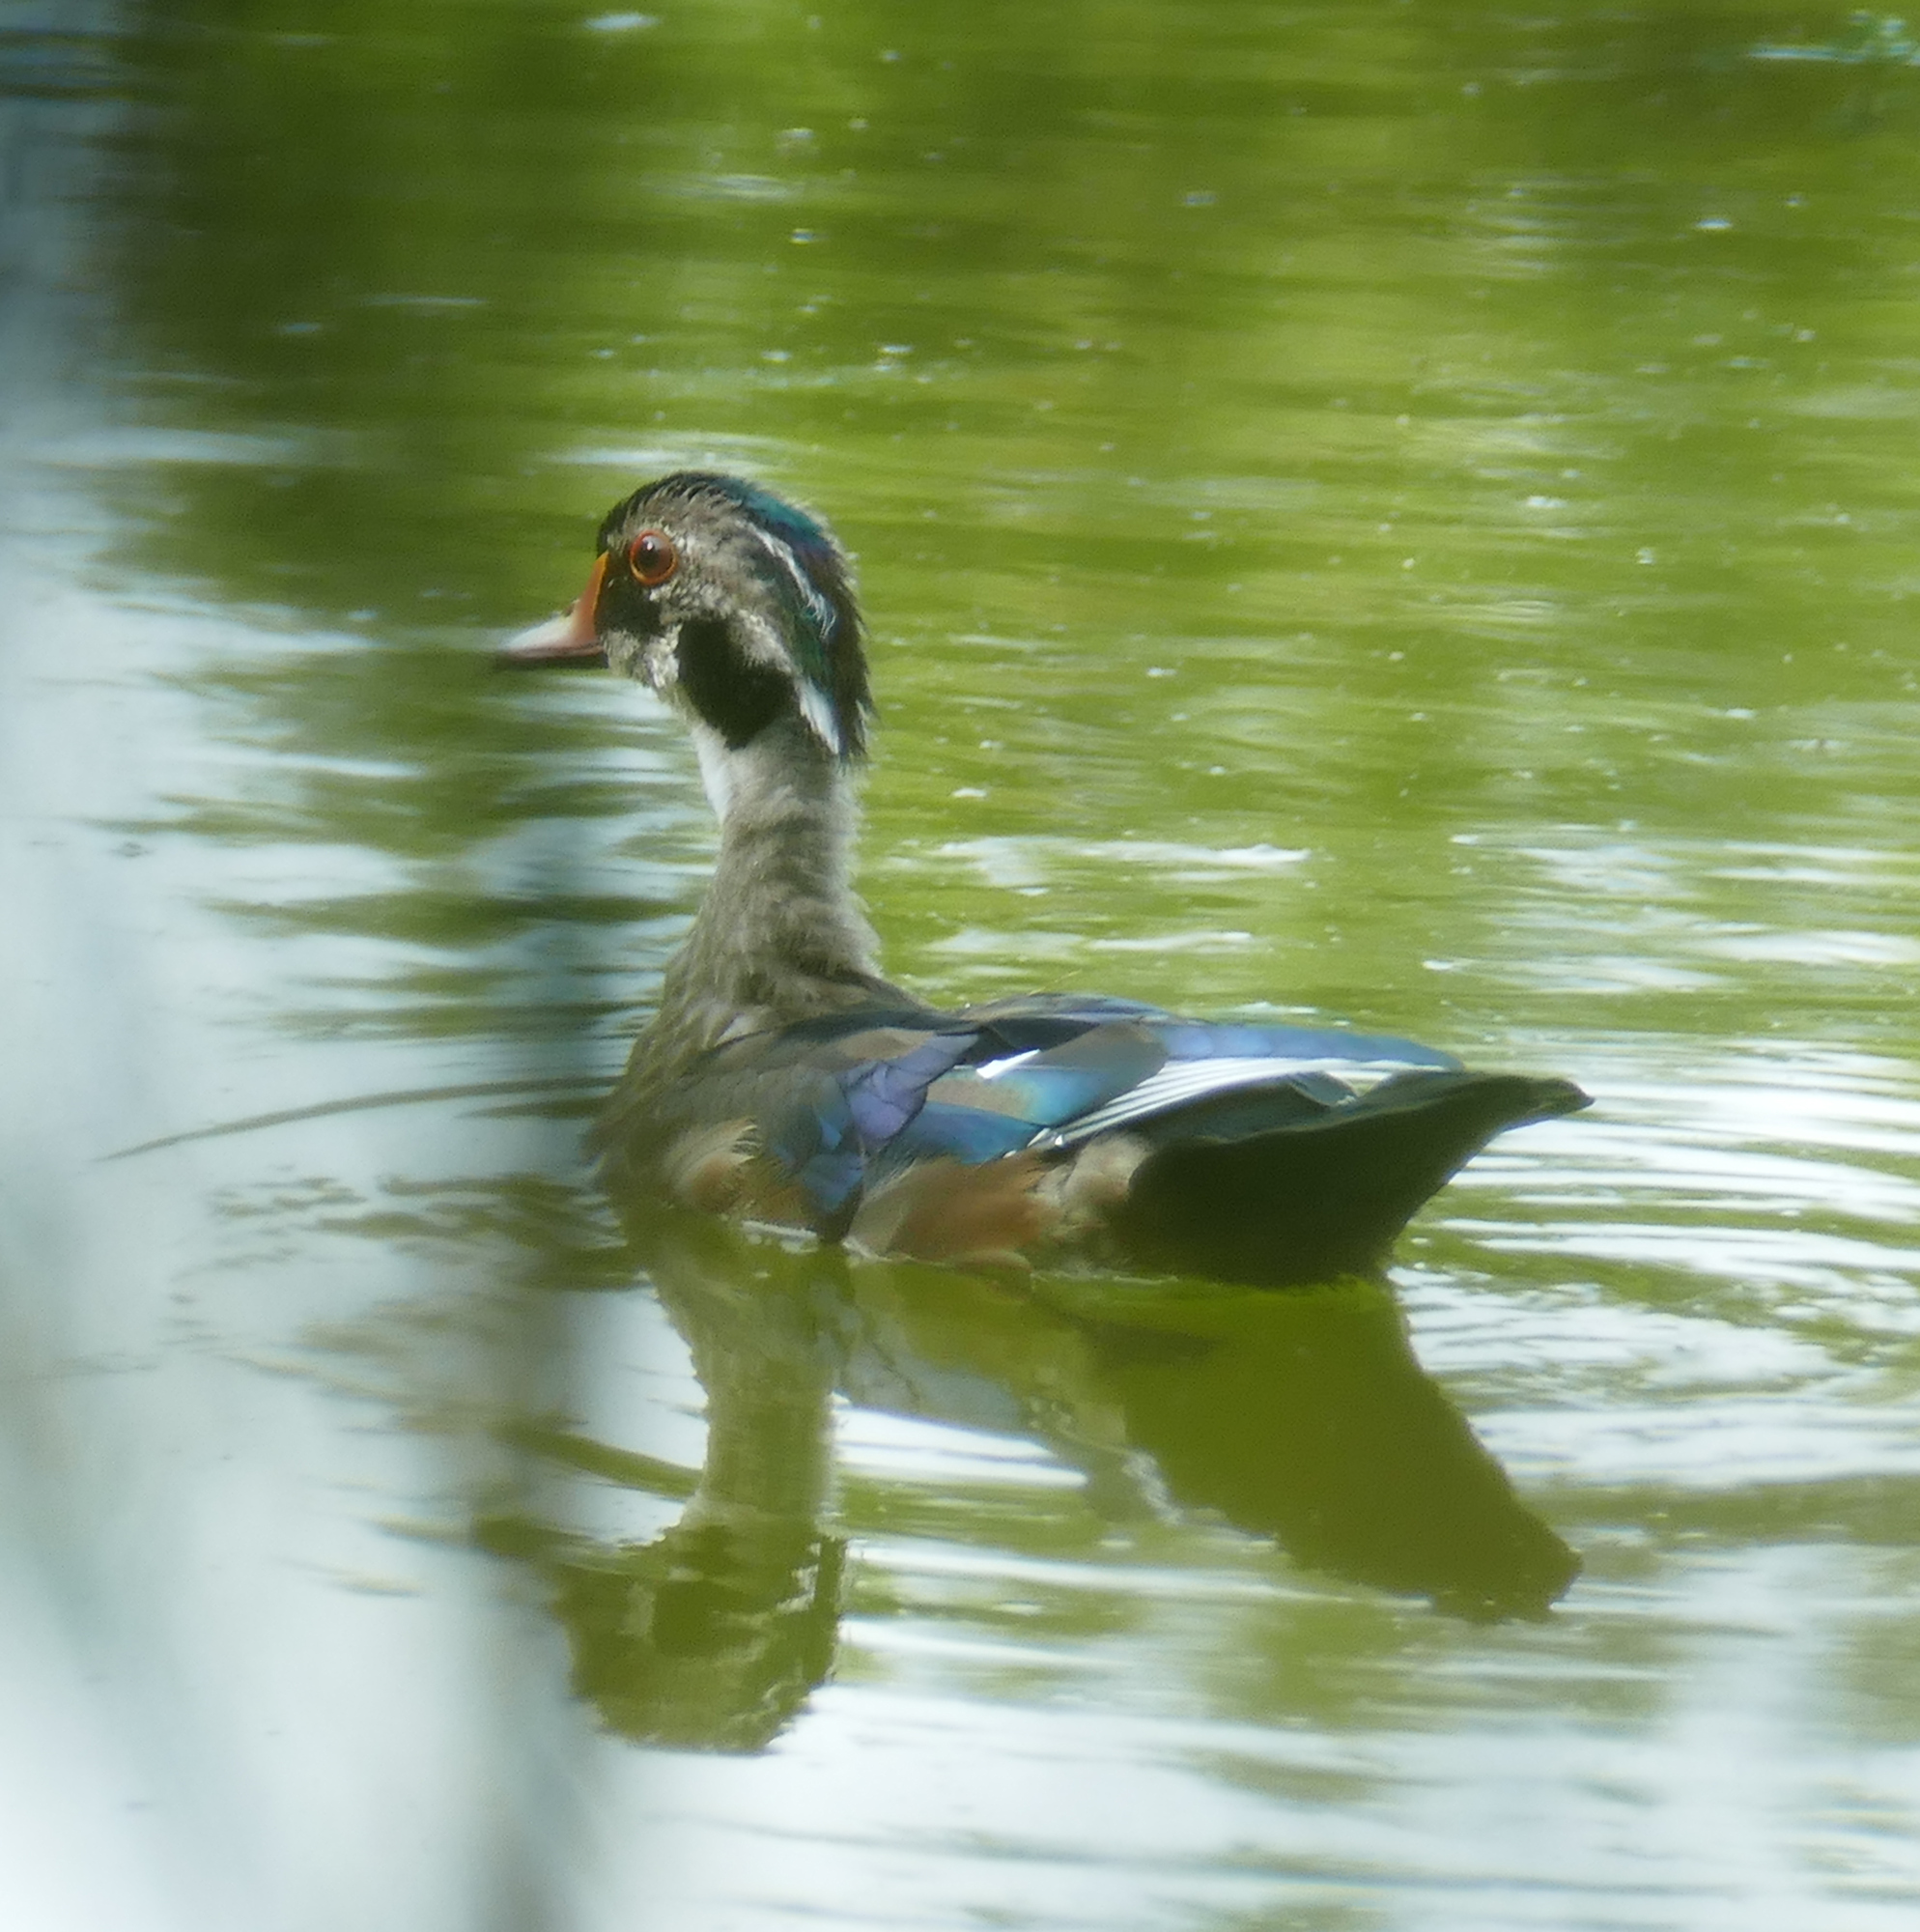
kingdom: Animalia
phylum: Chordata
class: Aves
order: Anseriformes
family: Anatidae
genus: Aix
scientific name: Aix sponsa
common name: Wood duck
